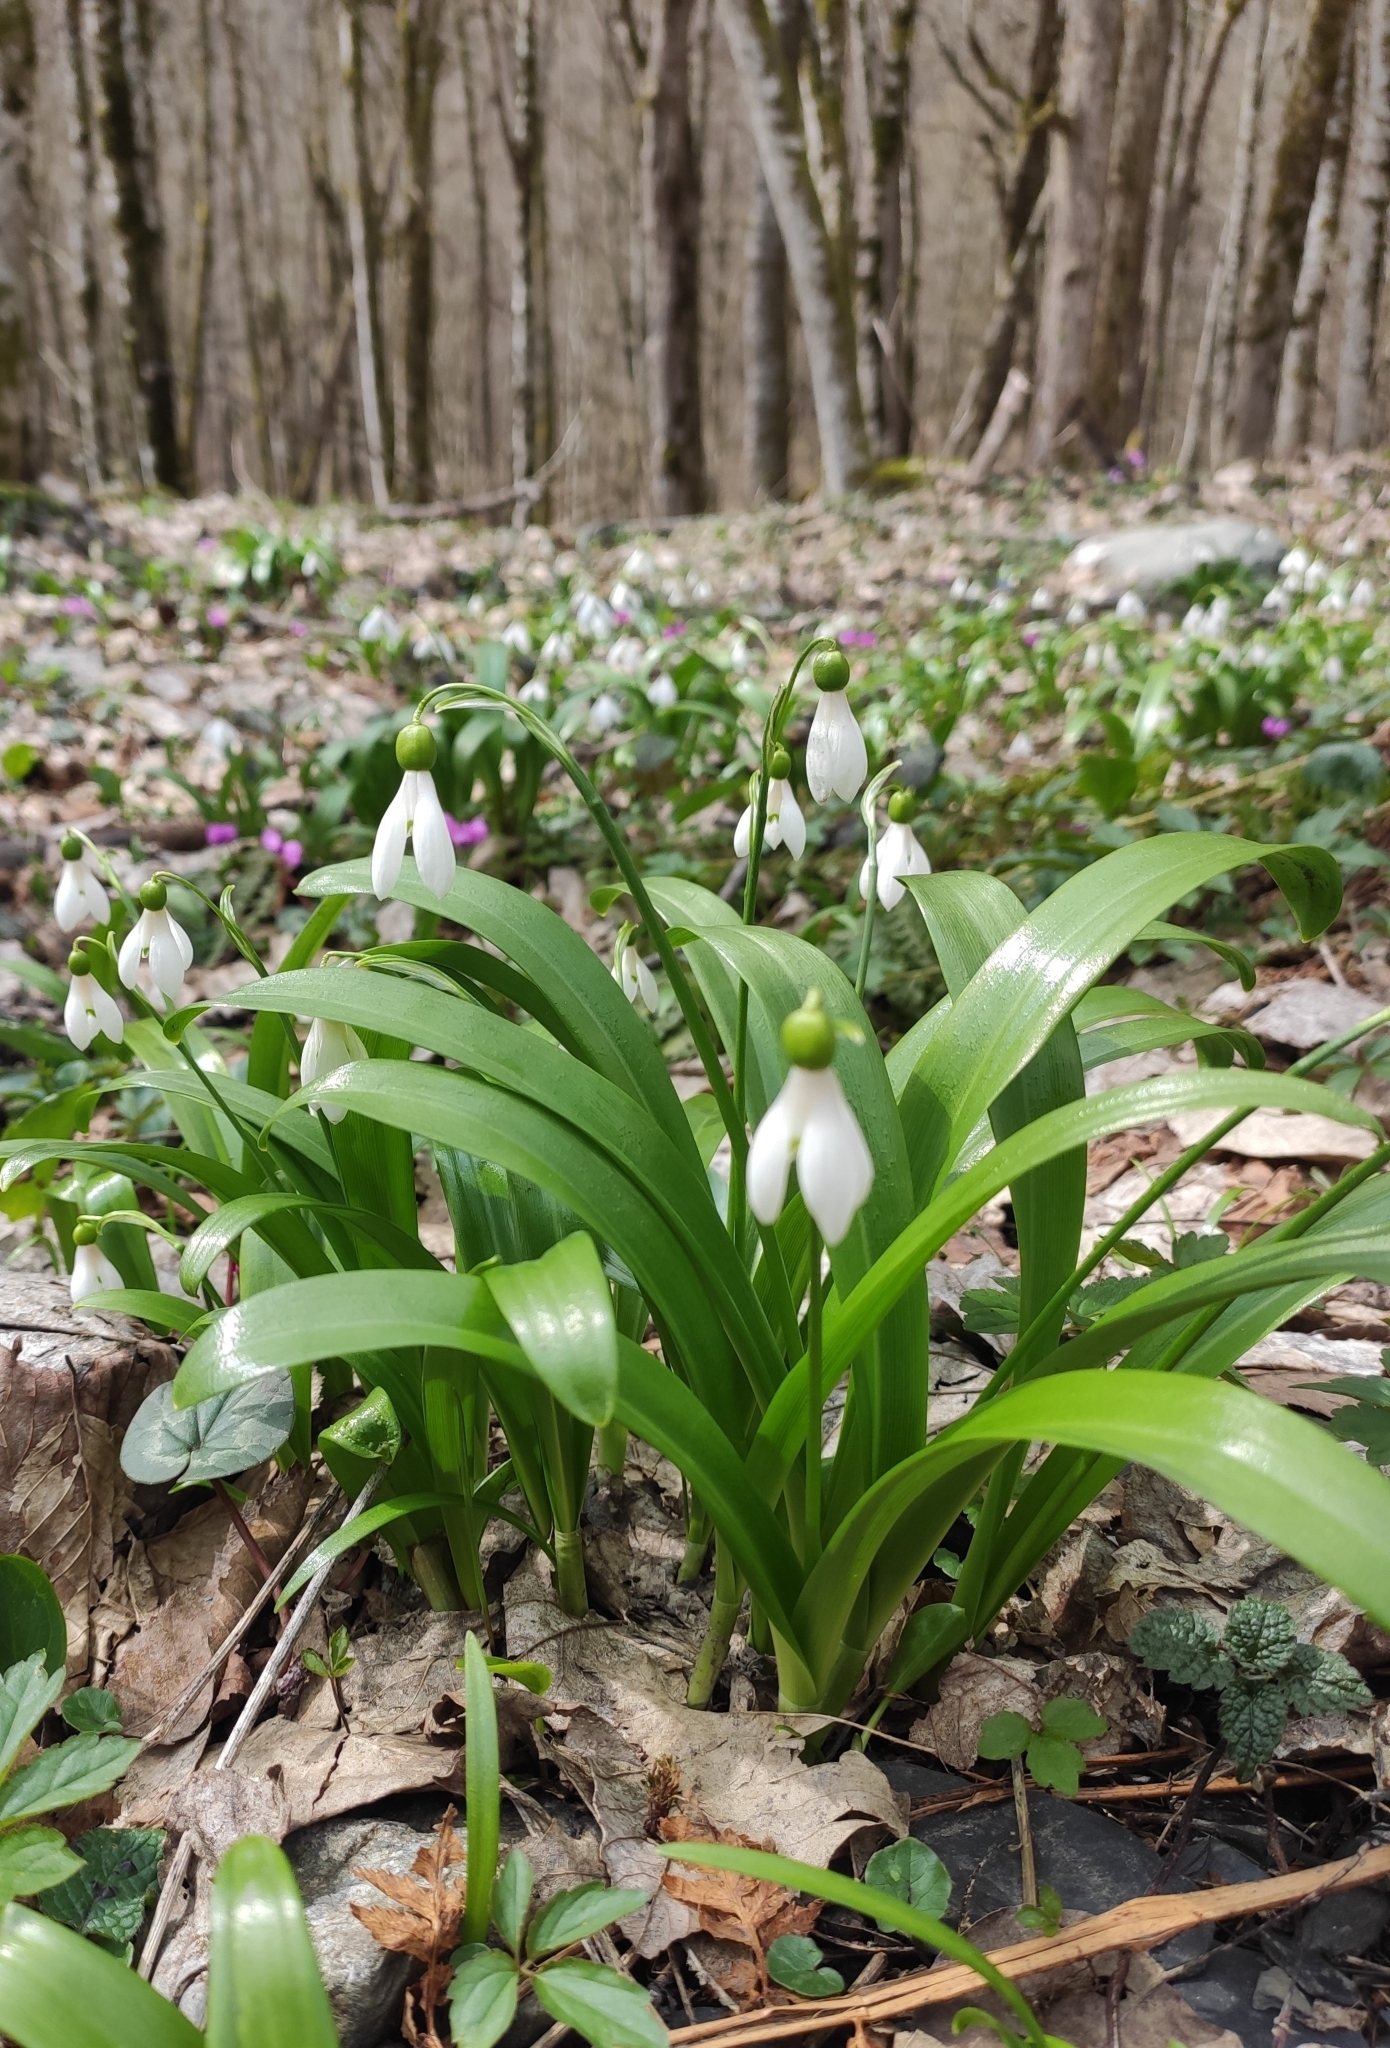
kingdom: Plantae
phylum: Tracheophyta
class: Liliopsida
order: Asparagales
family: Amaryllidaceae
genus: Galanthus
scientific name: Galanthus woronowii
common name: Green snowdrop
